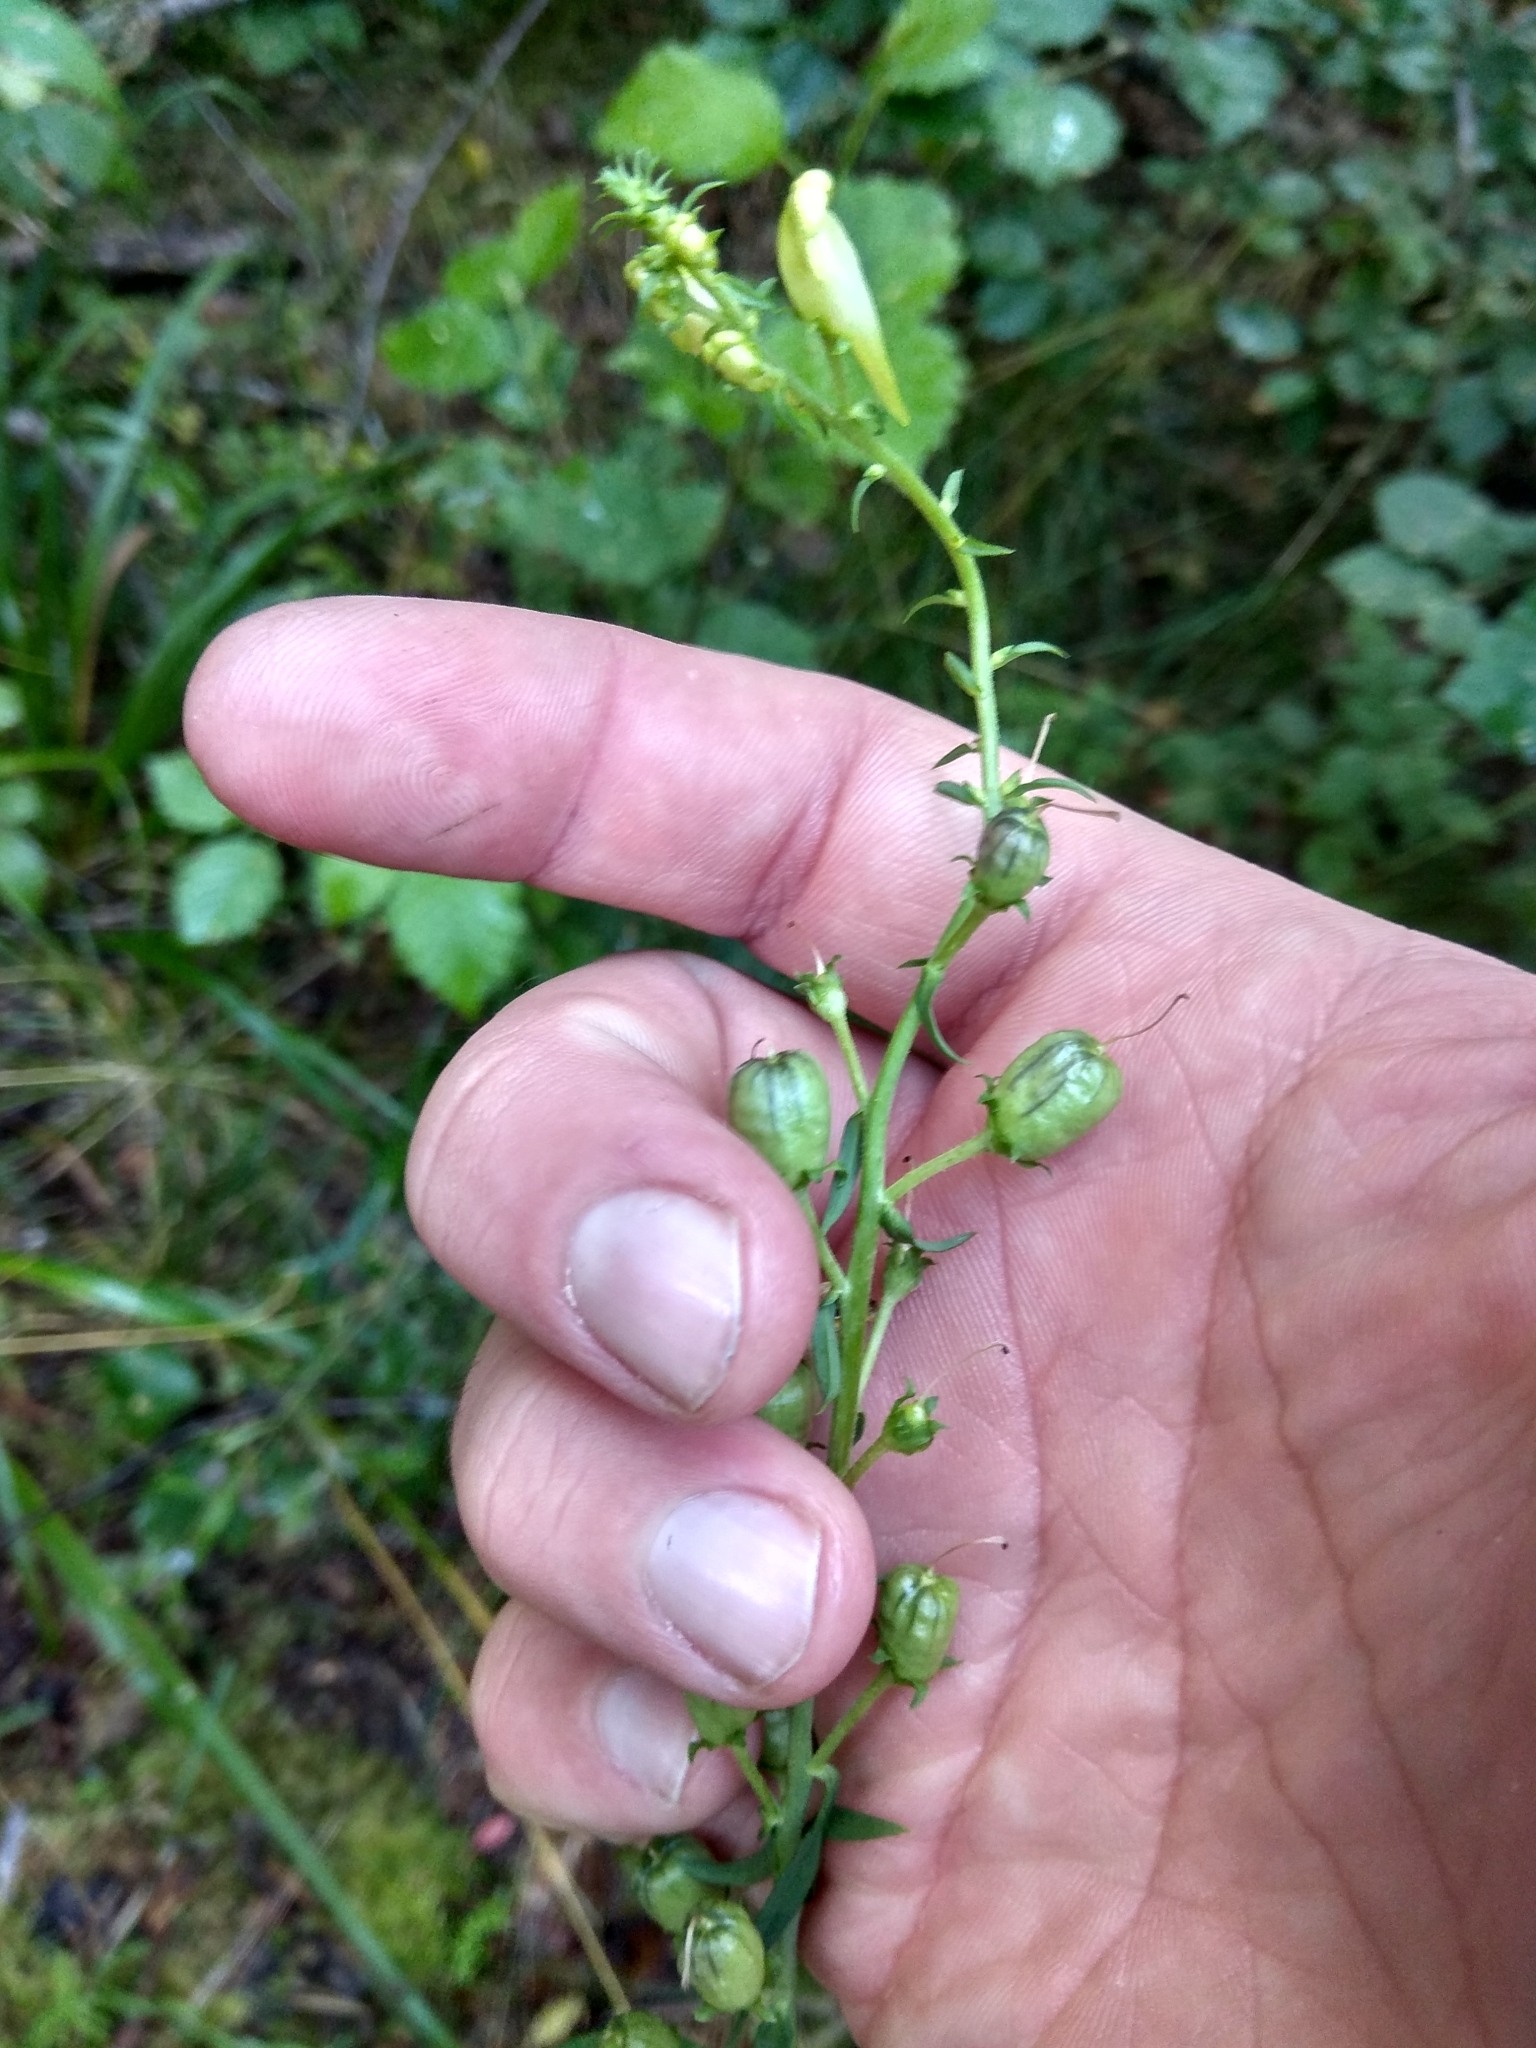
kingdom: Plantae
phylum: Tracheophyta
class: Magnoliopsida
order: Lamiales
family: Plantaginaceae
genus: Linaria
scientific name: Linaria vulgaris
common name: Butter and eggs
